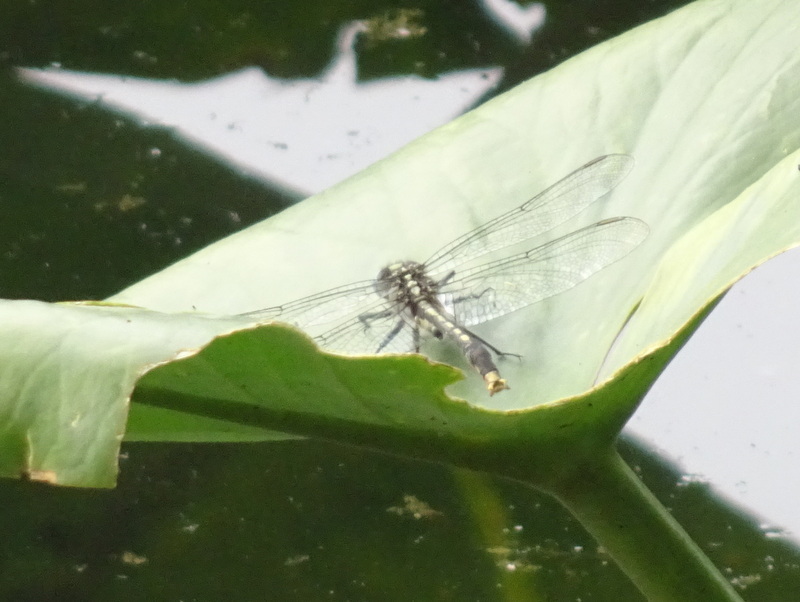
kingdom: Animalia
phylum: Arthropoda
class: Insecta
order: Odonata
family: Gomphidae
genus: Arigomphus
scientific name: Arigomphus furcifer
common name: Lilypad clubtail
